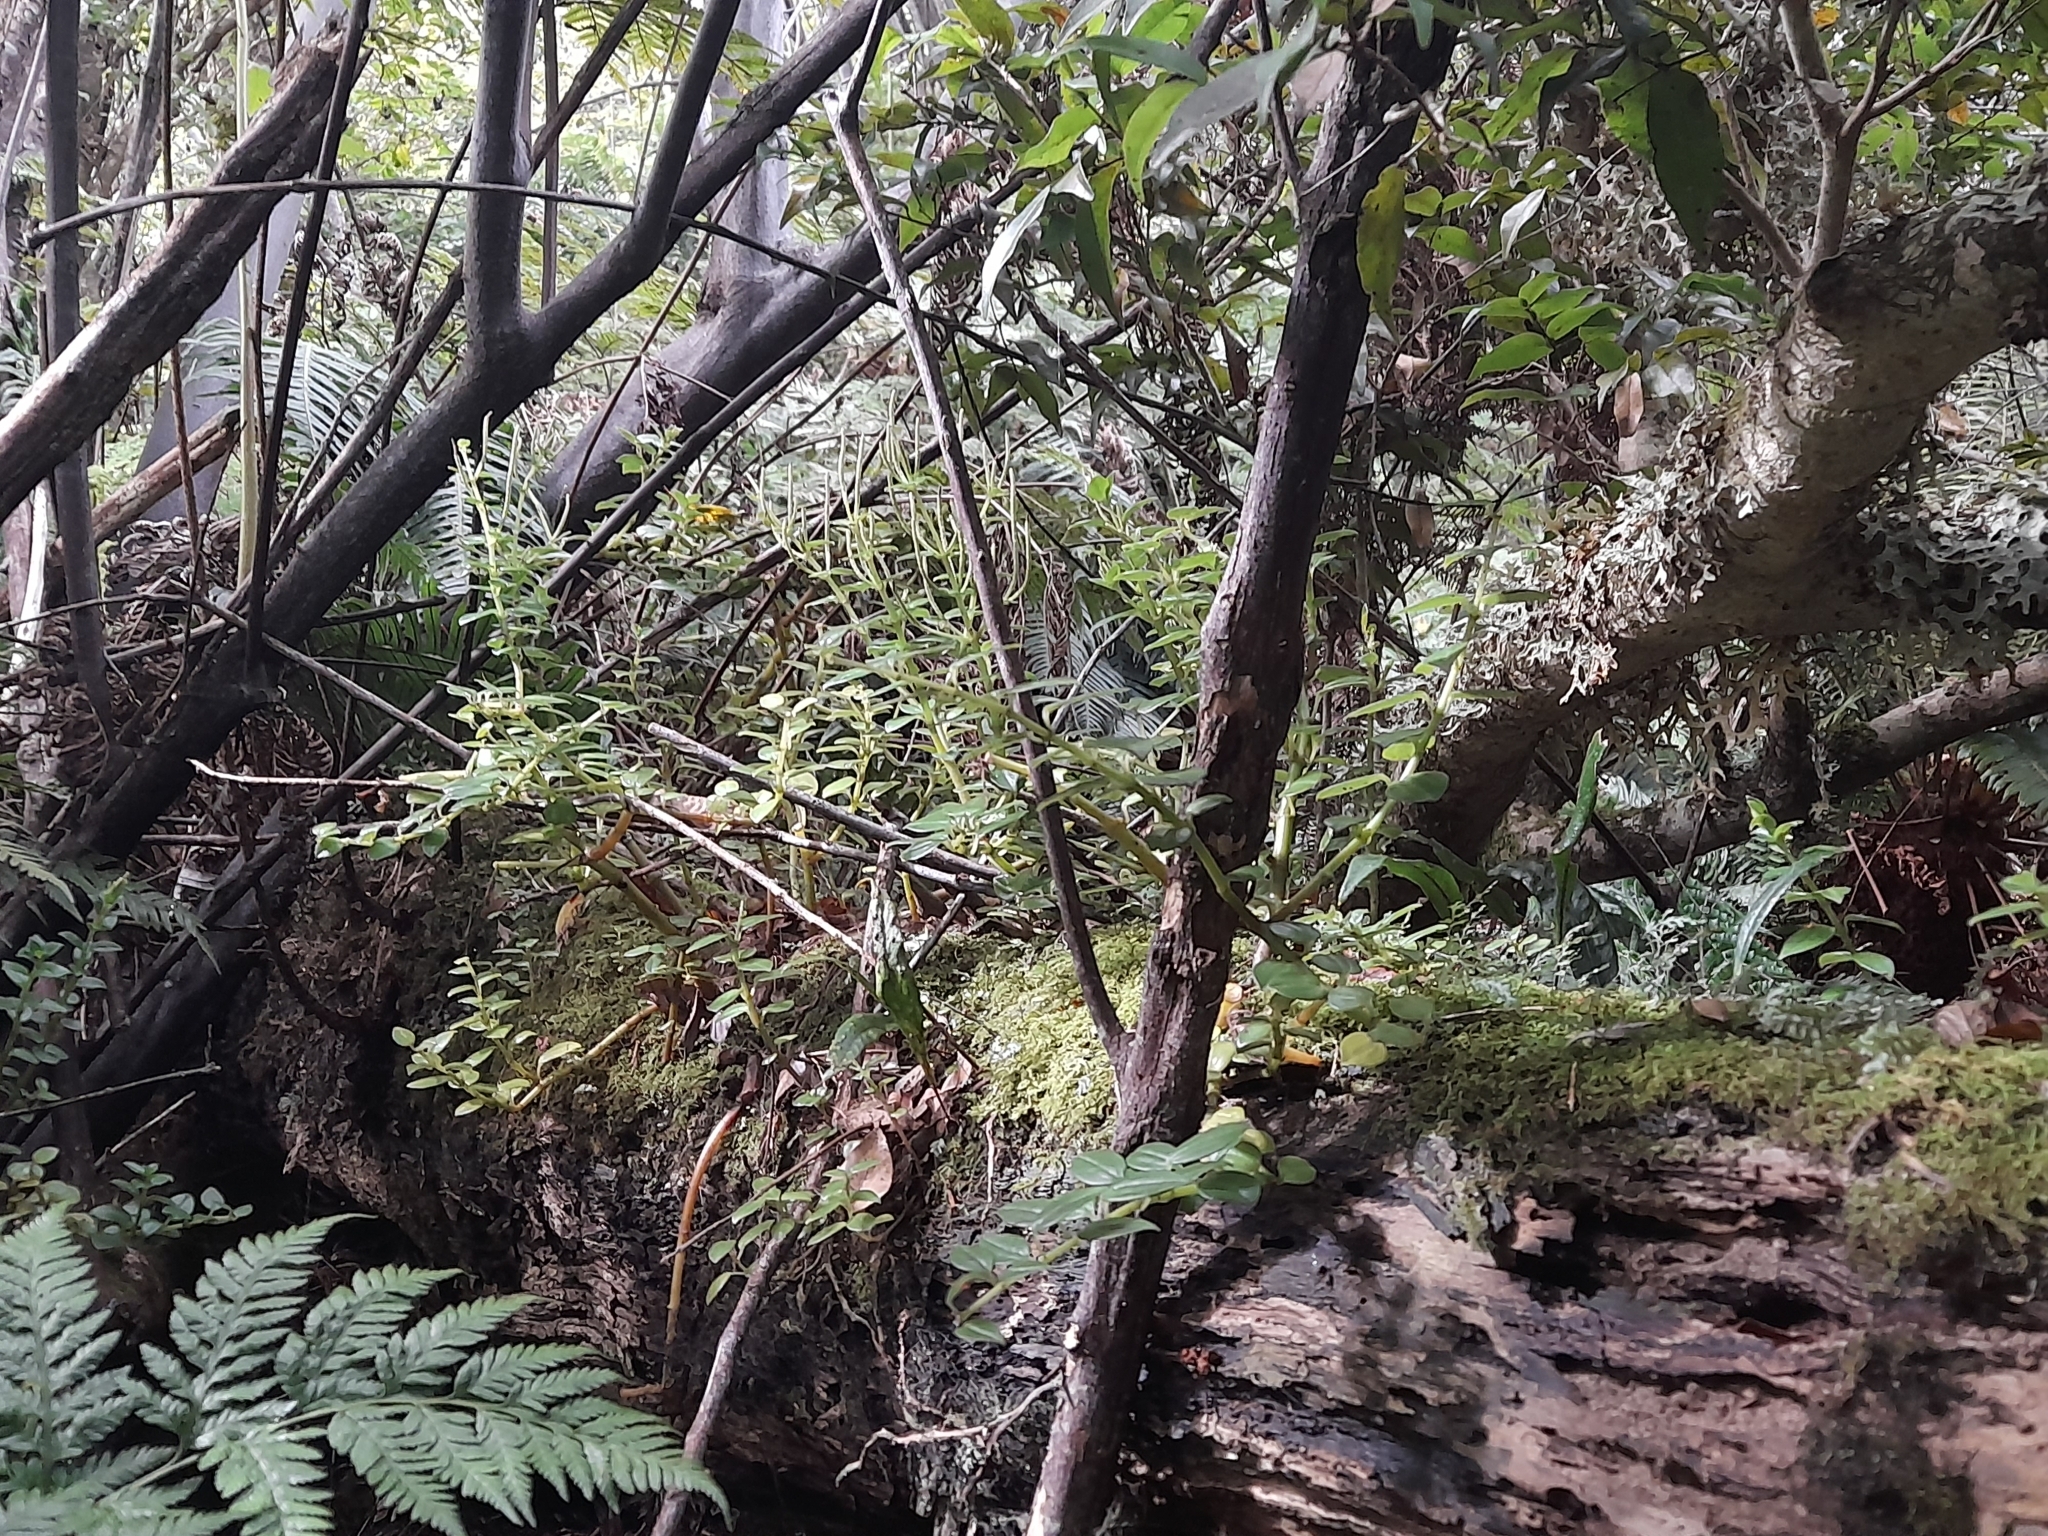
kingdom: Plantae
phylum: Tracheophyta
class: Magnoliopsida
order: Piperales
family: Piperaceae
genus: Peperomia
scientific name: Peperomia fernandeziana
